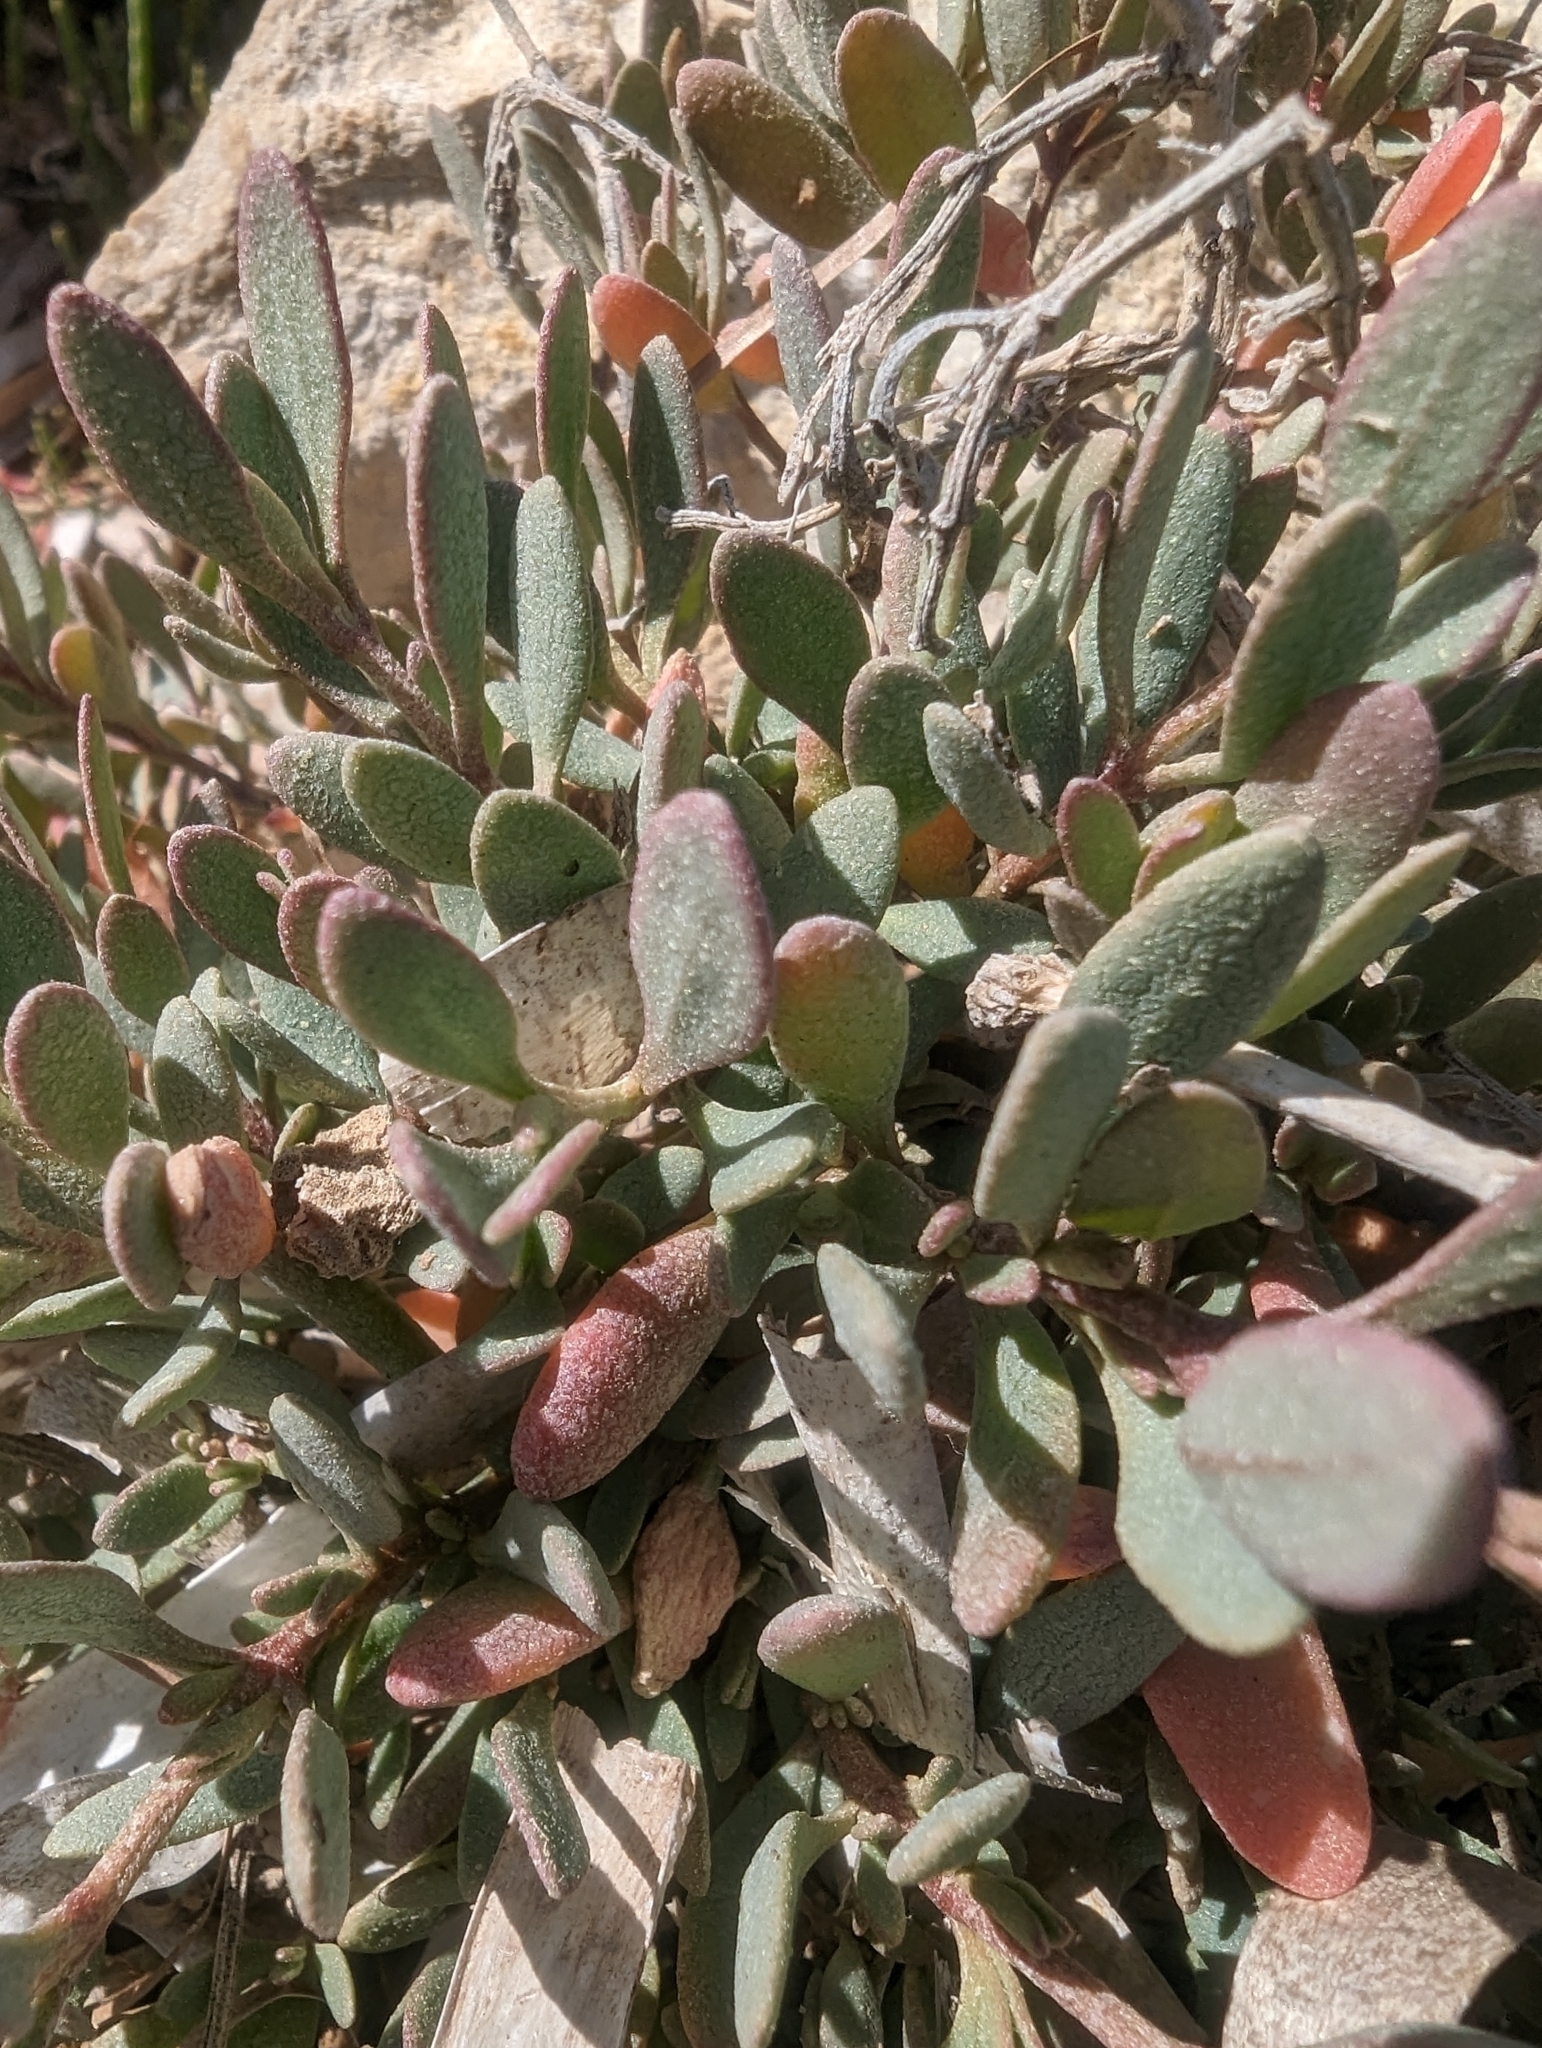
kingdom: Plantae
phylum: Tracheophyta
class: Magnoliopsida
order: Caryophyllales
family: Amaranthaceae
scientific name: Amaranthaceae
